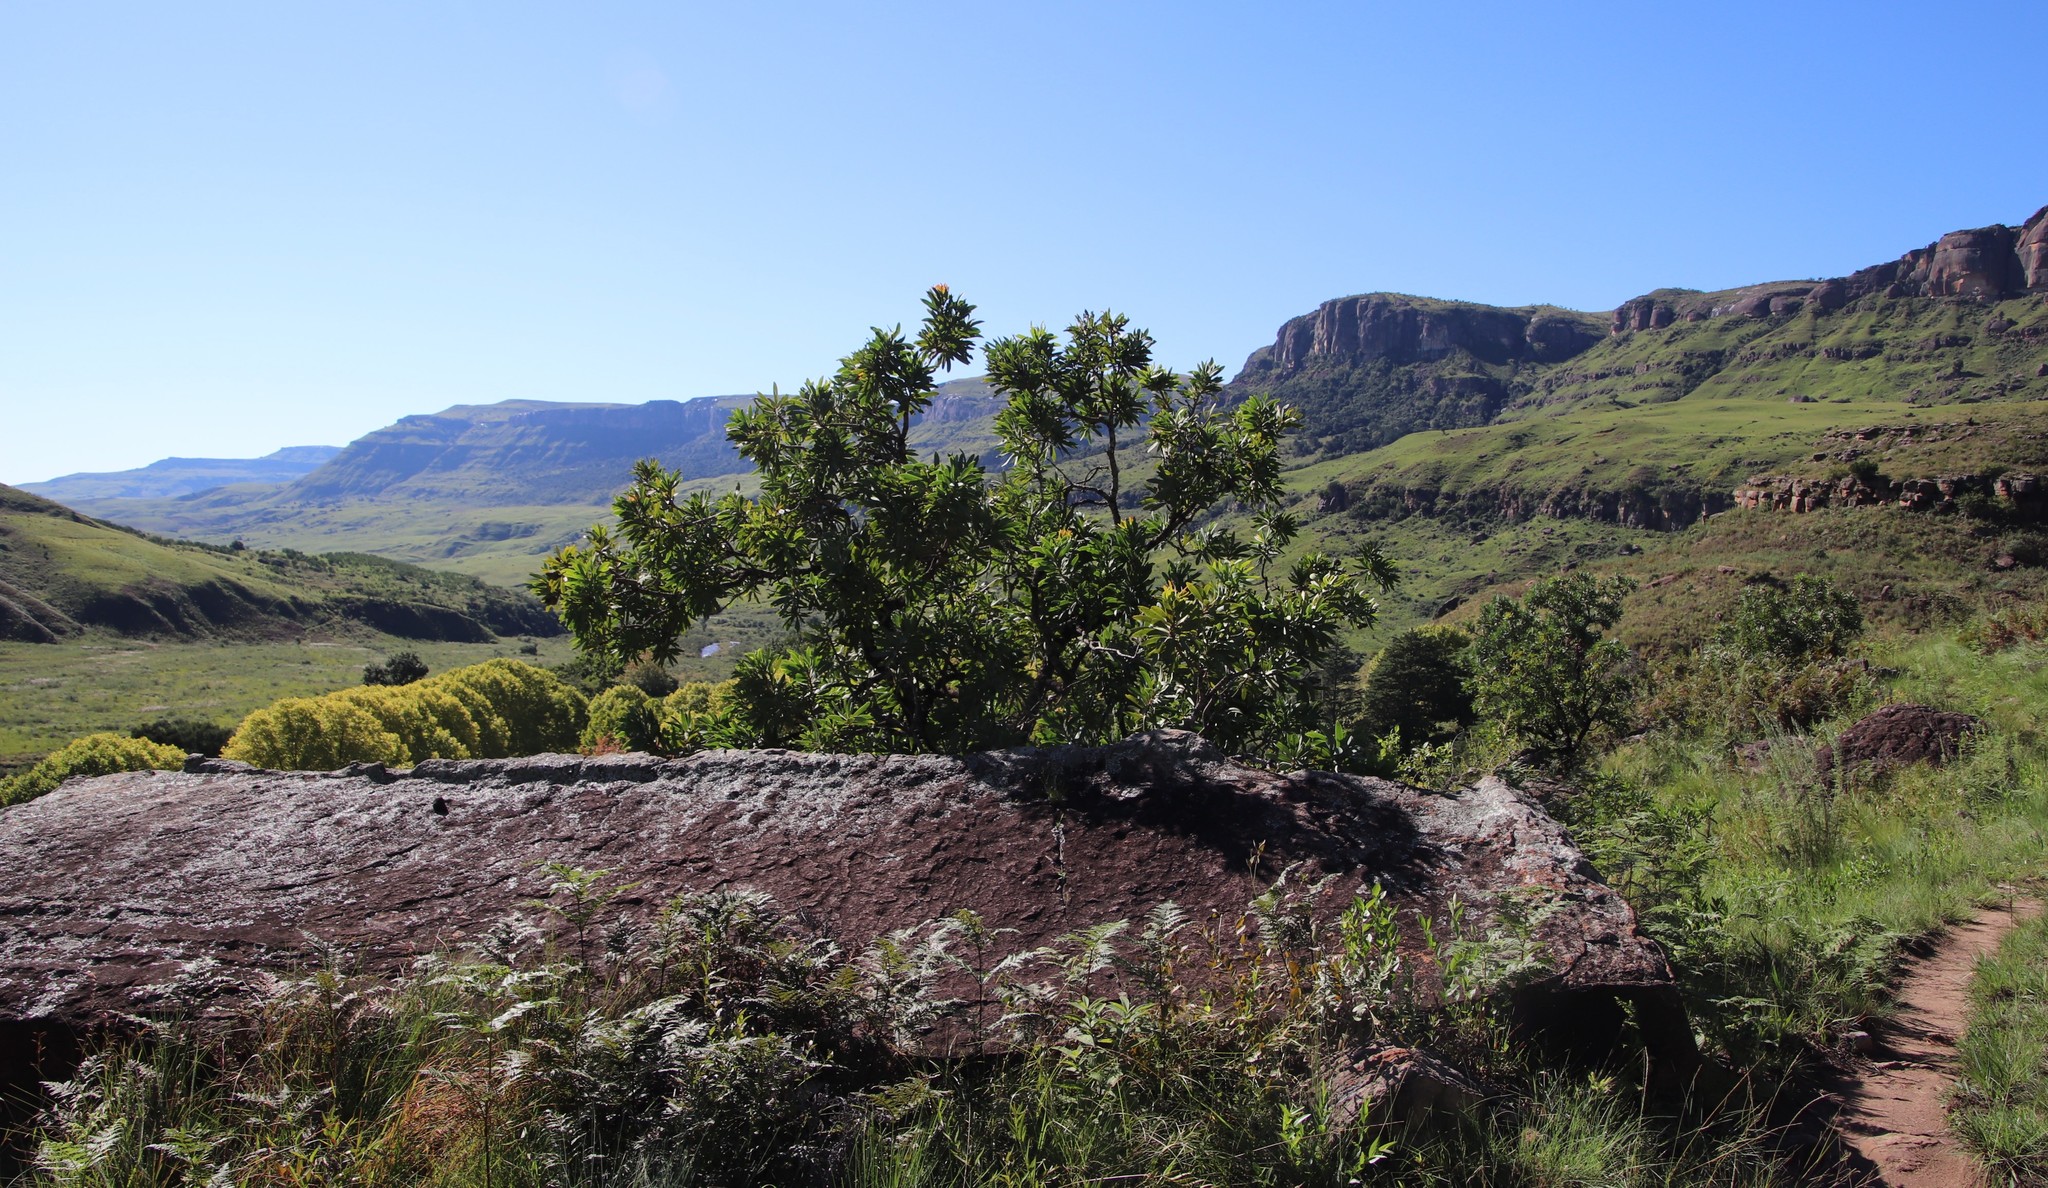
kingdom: Plantae
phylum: Tracheophyta
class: Magnoliopsida
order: Proteales
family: Proteaceae
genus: Protea
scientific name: Protea caffra
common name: Common sugarbush
